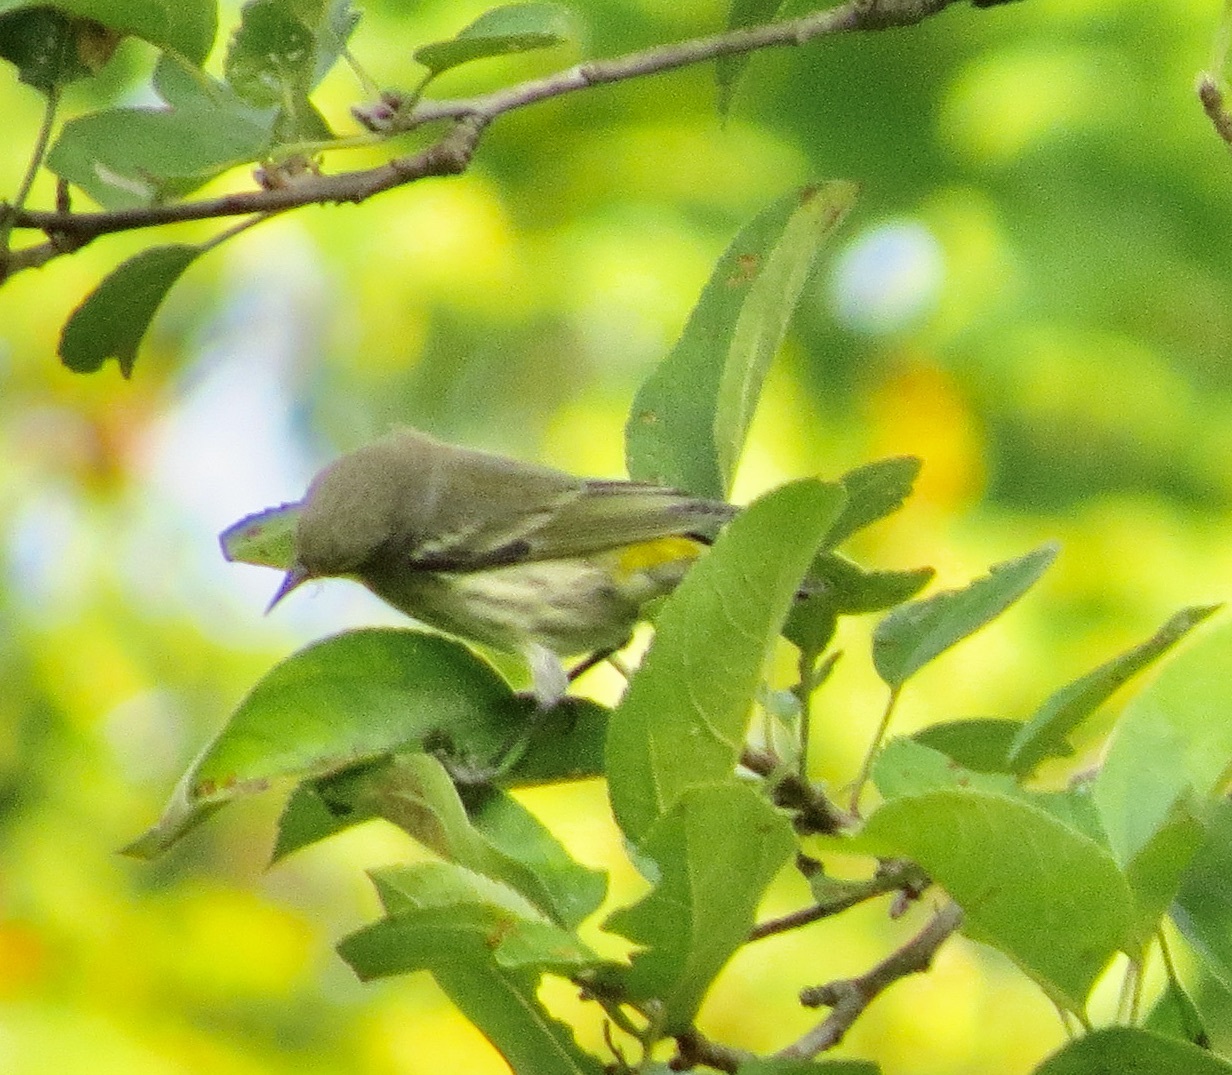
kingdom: Animalia
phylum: Chordata
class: Aves
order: Passeriformes
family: Parulidae
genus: Setophaga
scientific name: Setophaga tigrina
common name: Cape may warbler
